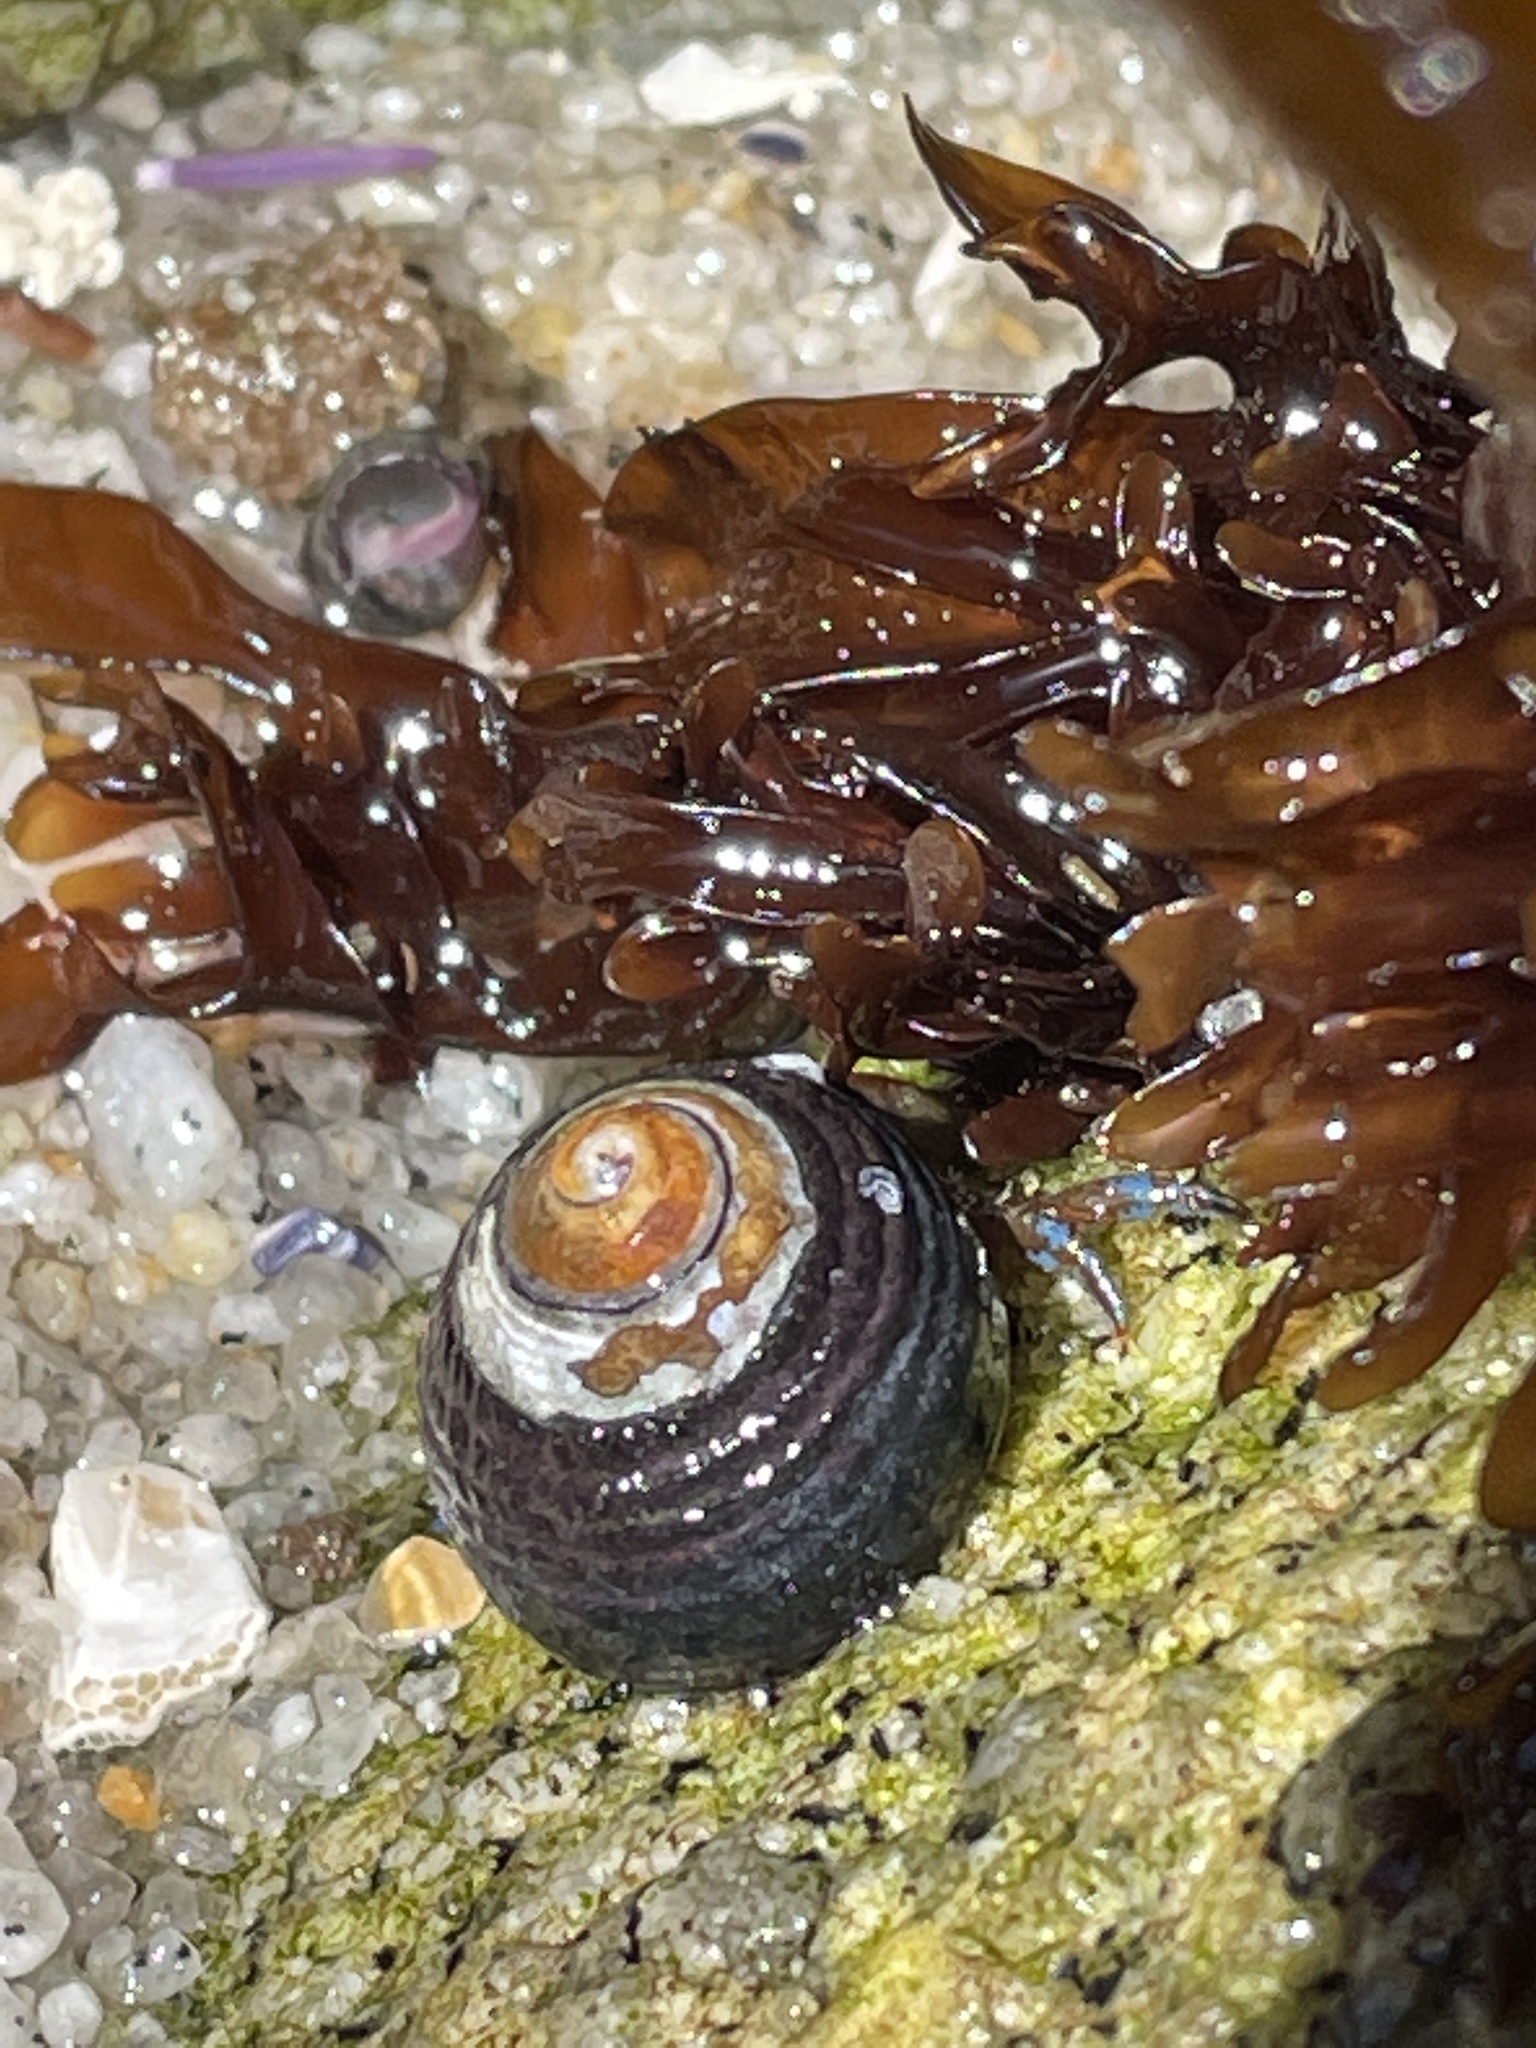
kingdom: Animalia
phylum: Arthropoda
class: Malacostraca
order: Decapoda
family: Paguridae
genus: Pagurus
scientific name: Pagurus samuelis
